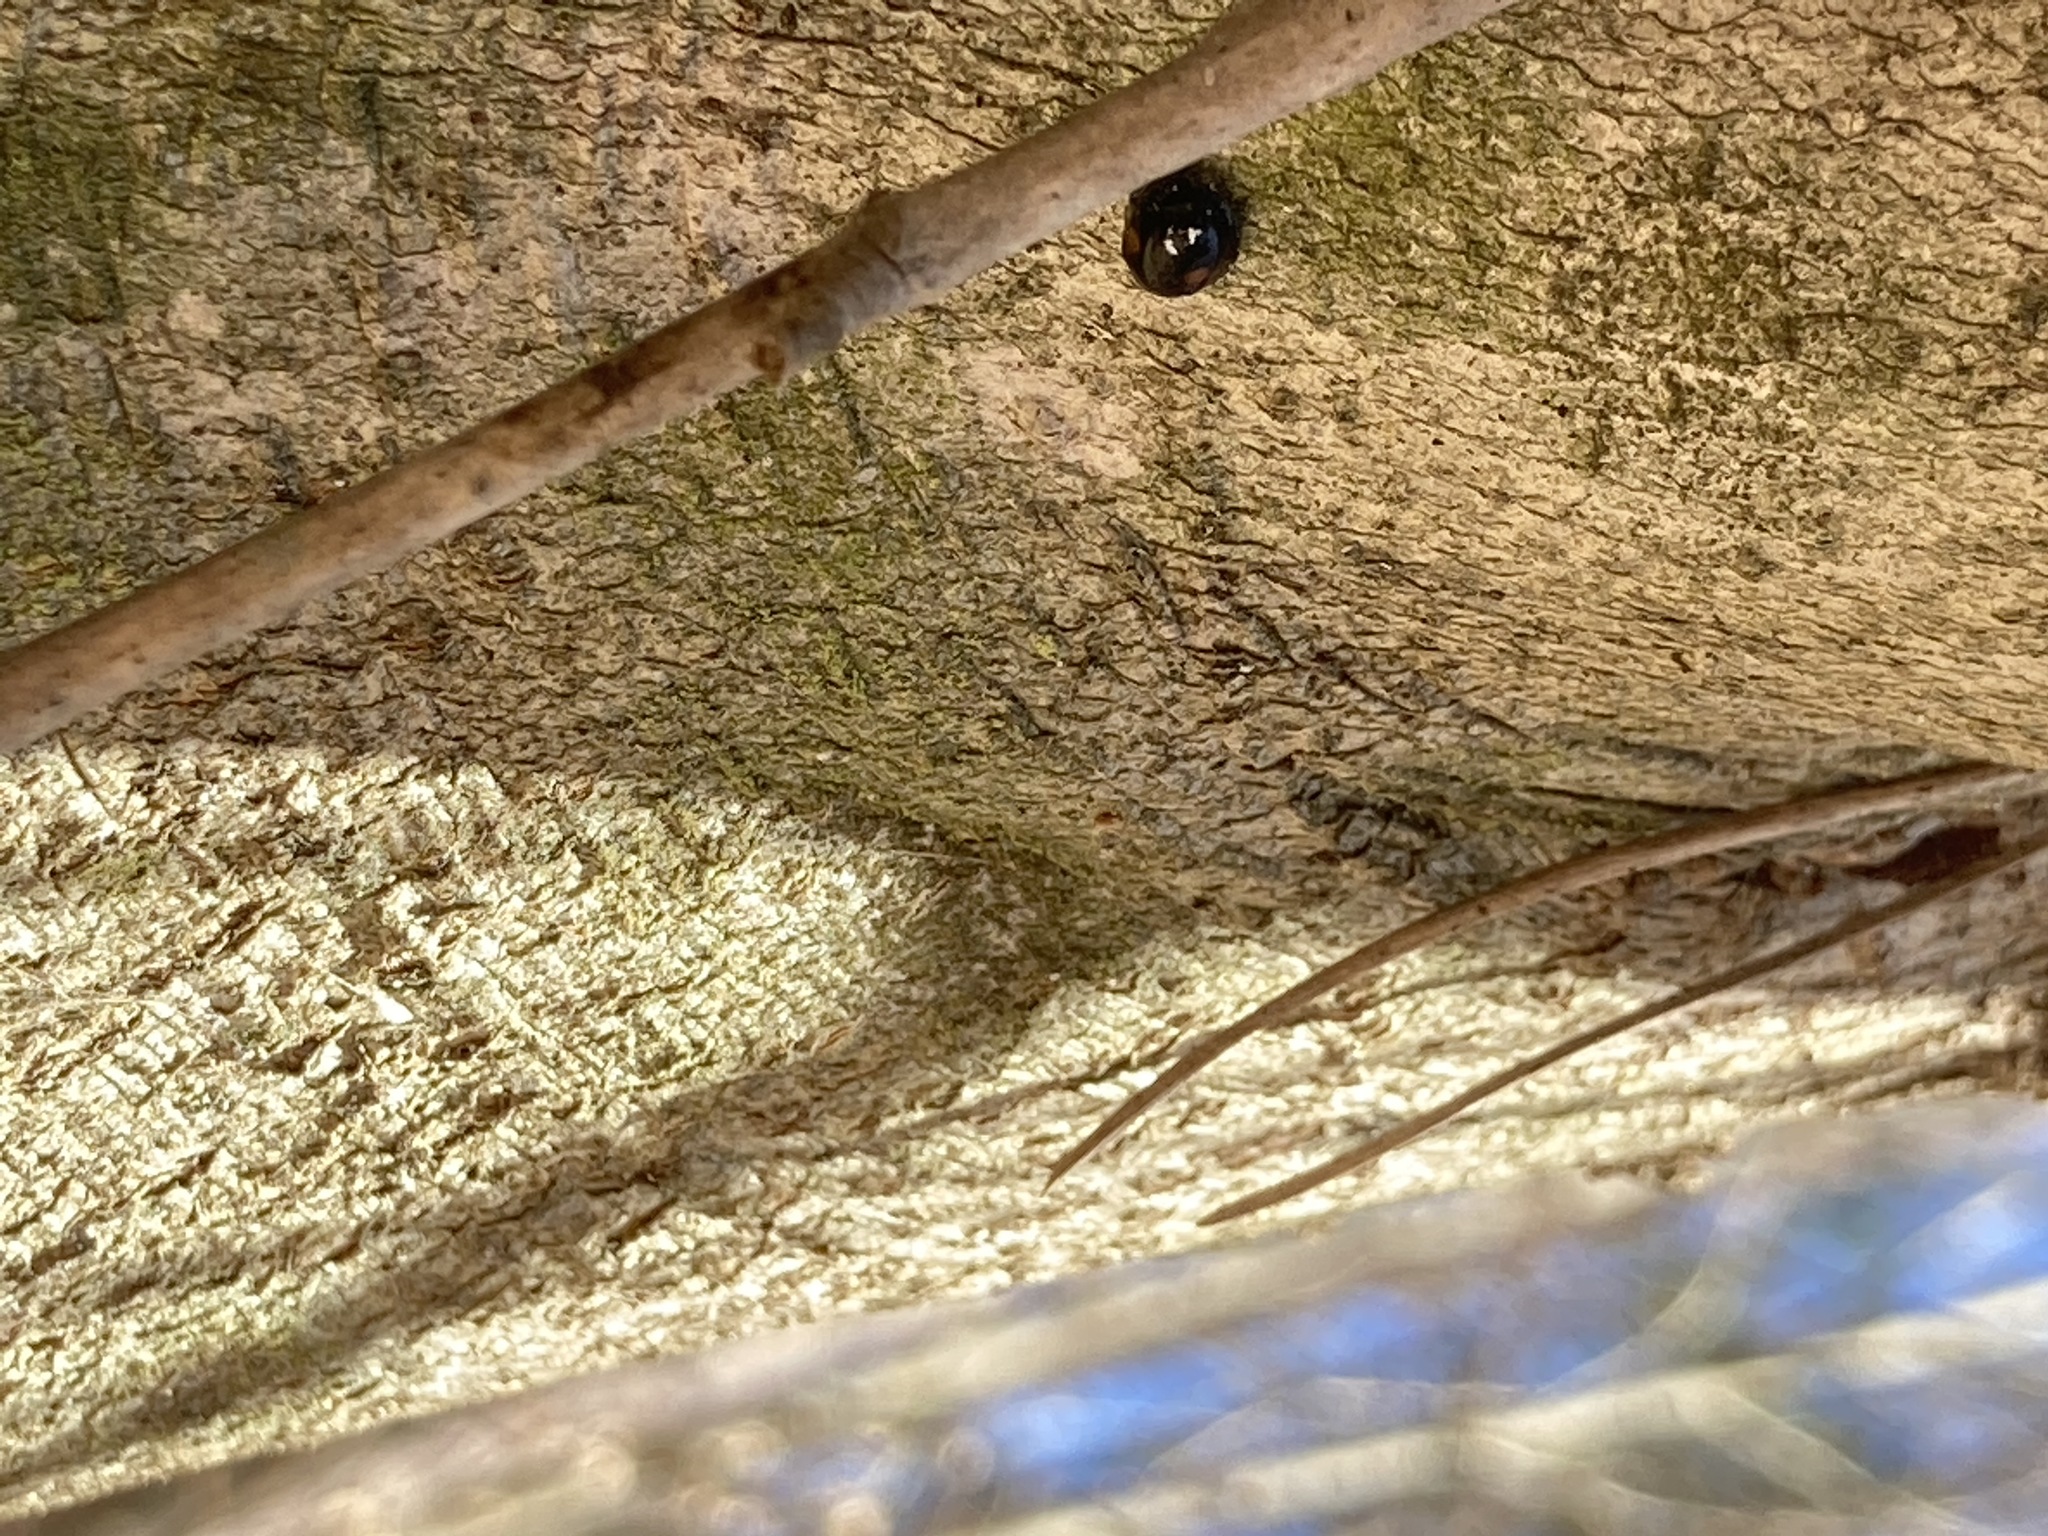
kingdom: Animalia
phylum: Arthropoda
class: Insecta
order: Coleoptera
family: Coccinellidae
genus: Chilocorus
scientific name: Chilocorus stigma
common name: Twicestabbed lady beetle
